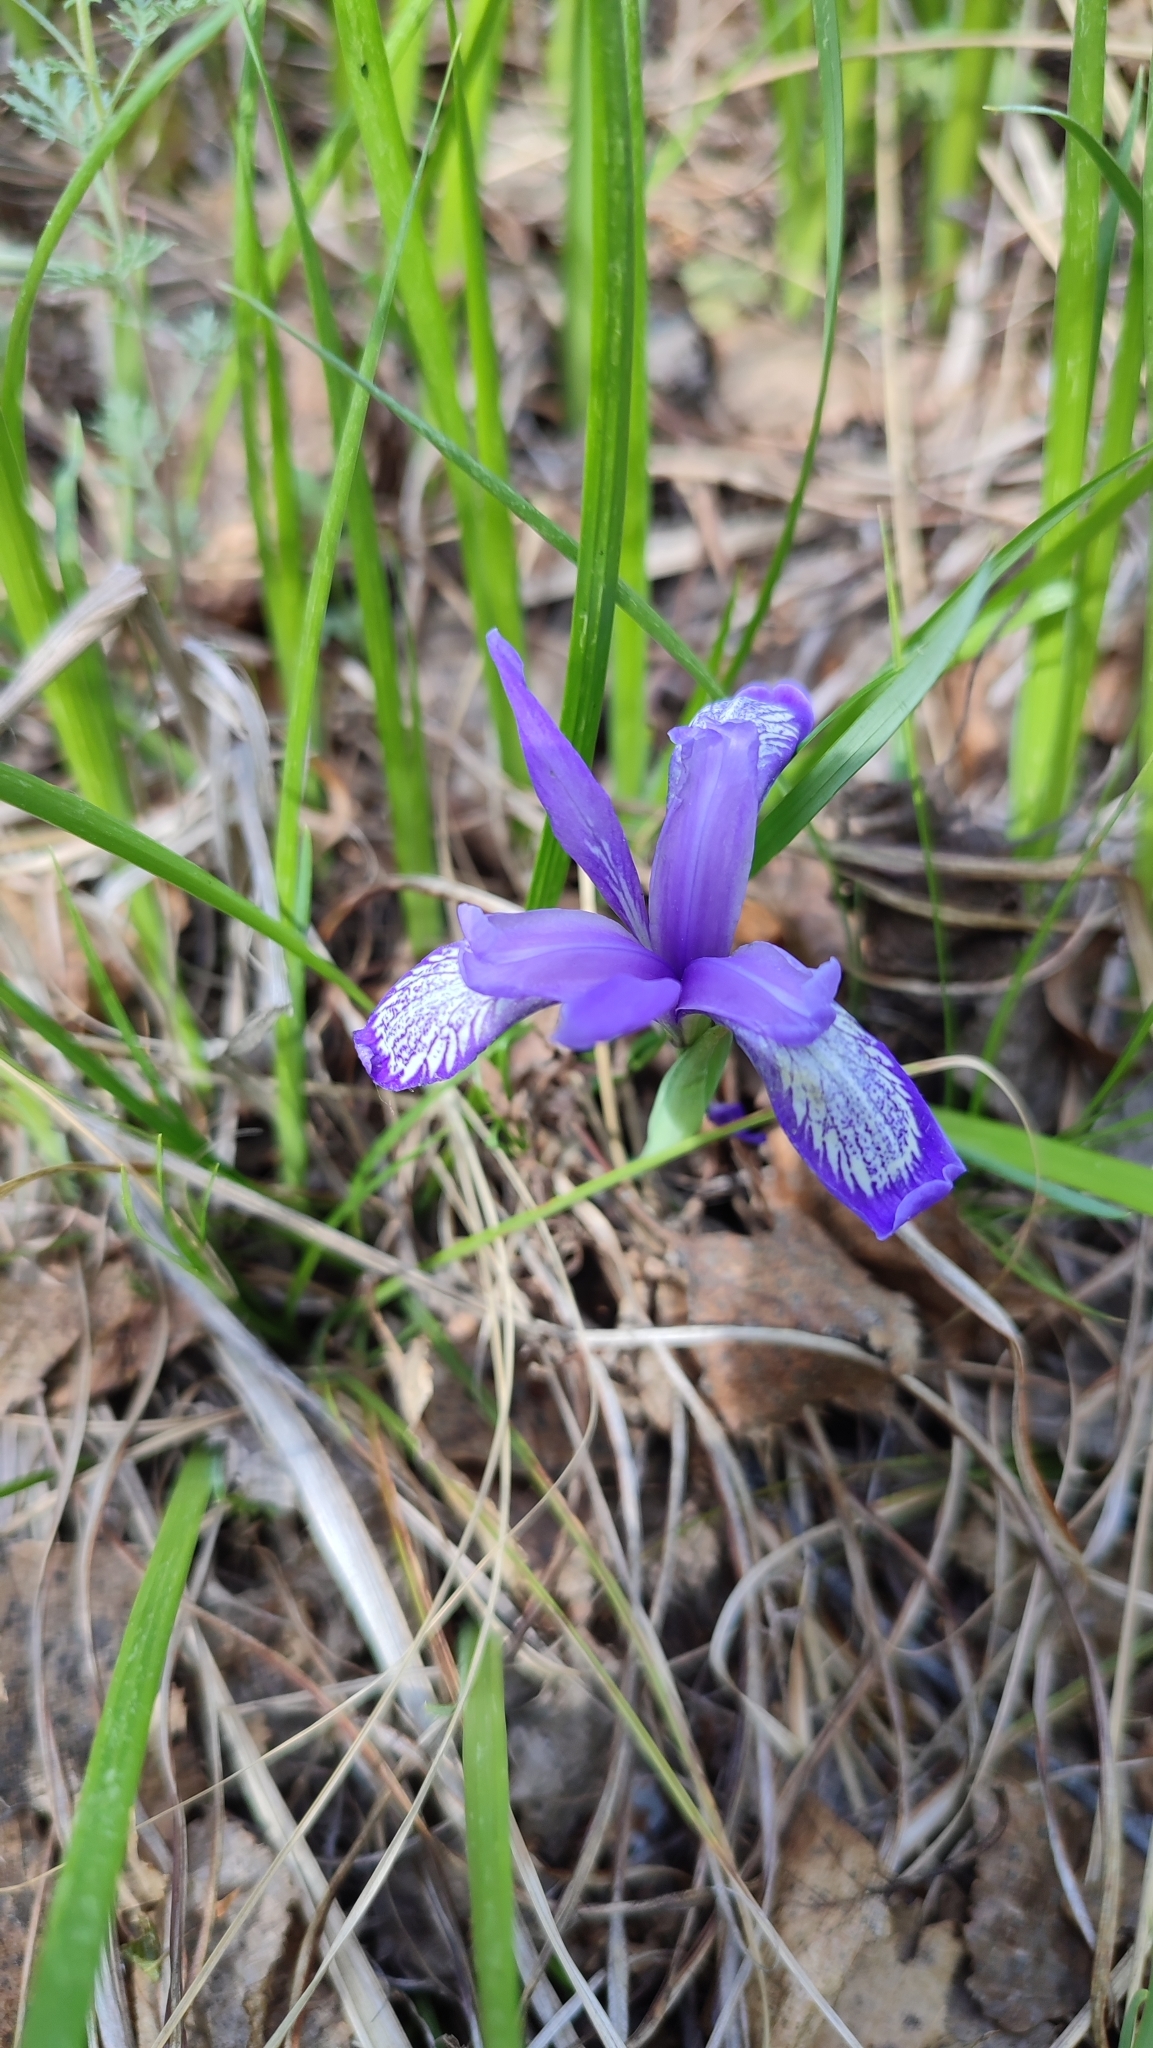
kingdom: Plantae
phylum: Tracheophyta
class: Liliopsida
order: Asparagales
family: Iridaceae
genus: Iris
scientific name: Iris ruthenica
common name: Purple-bract iris
